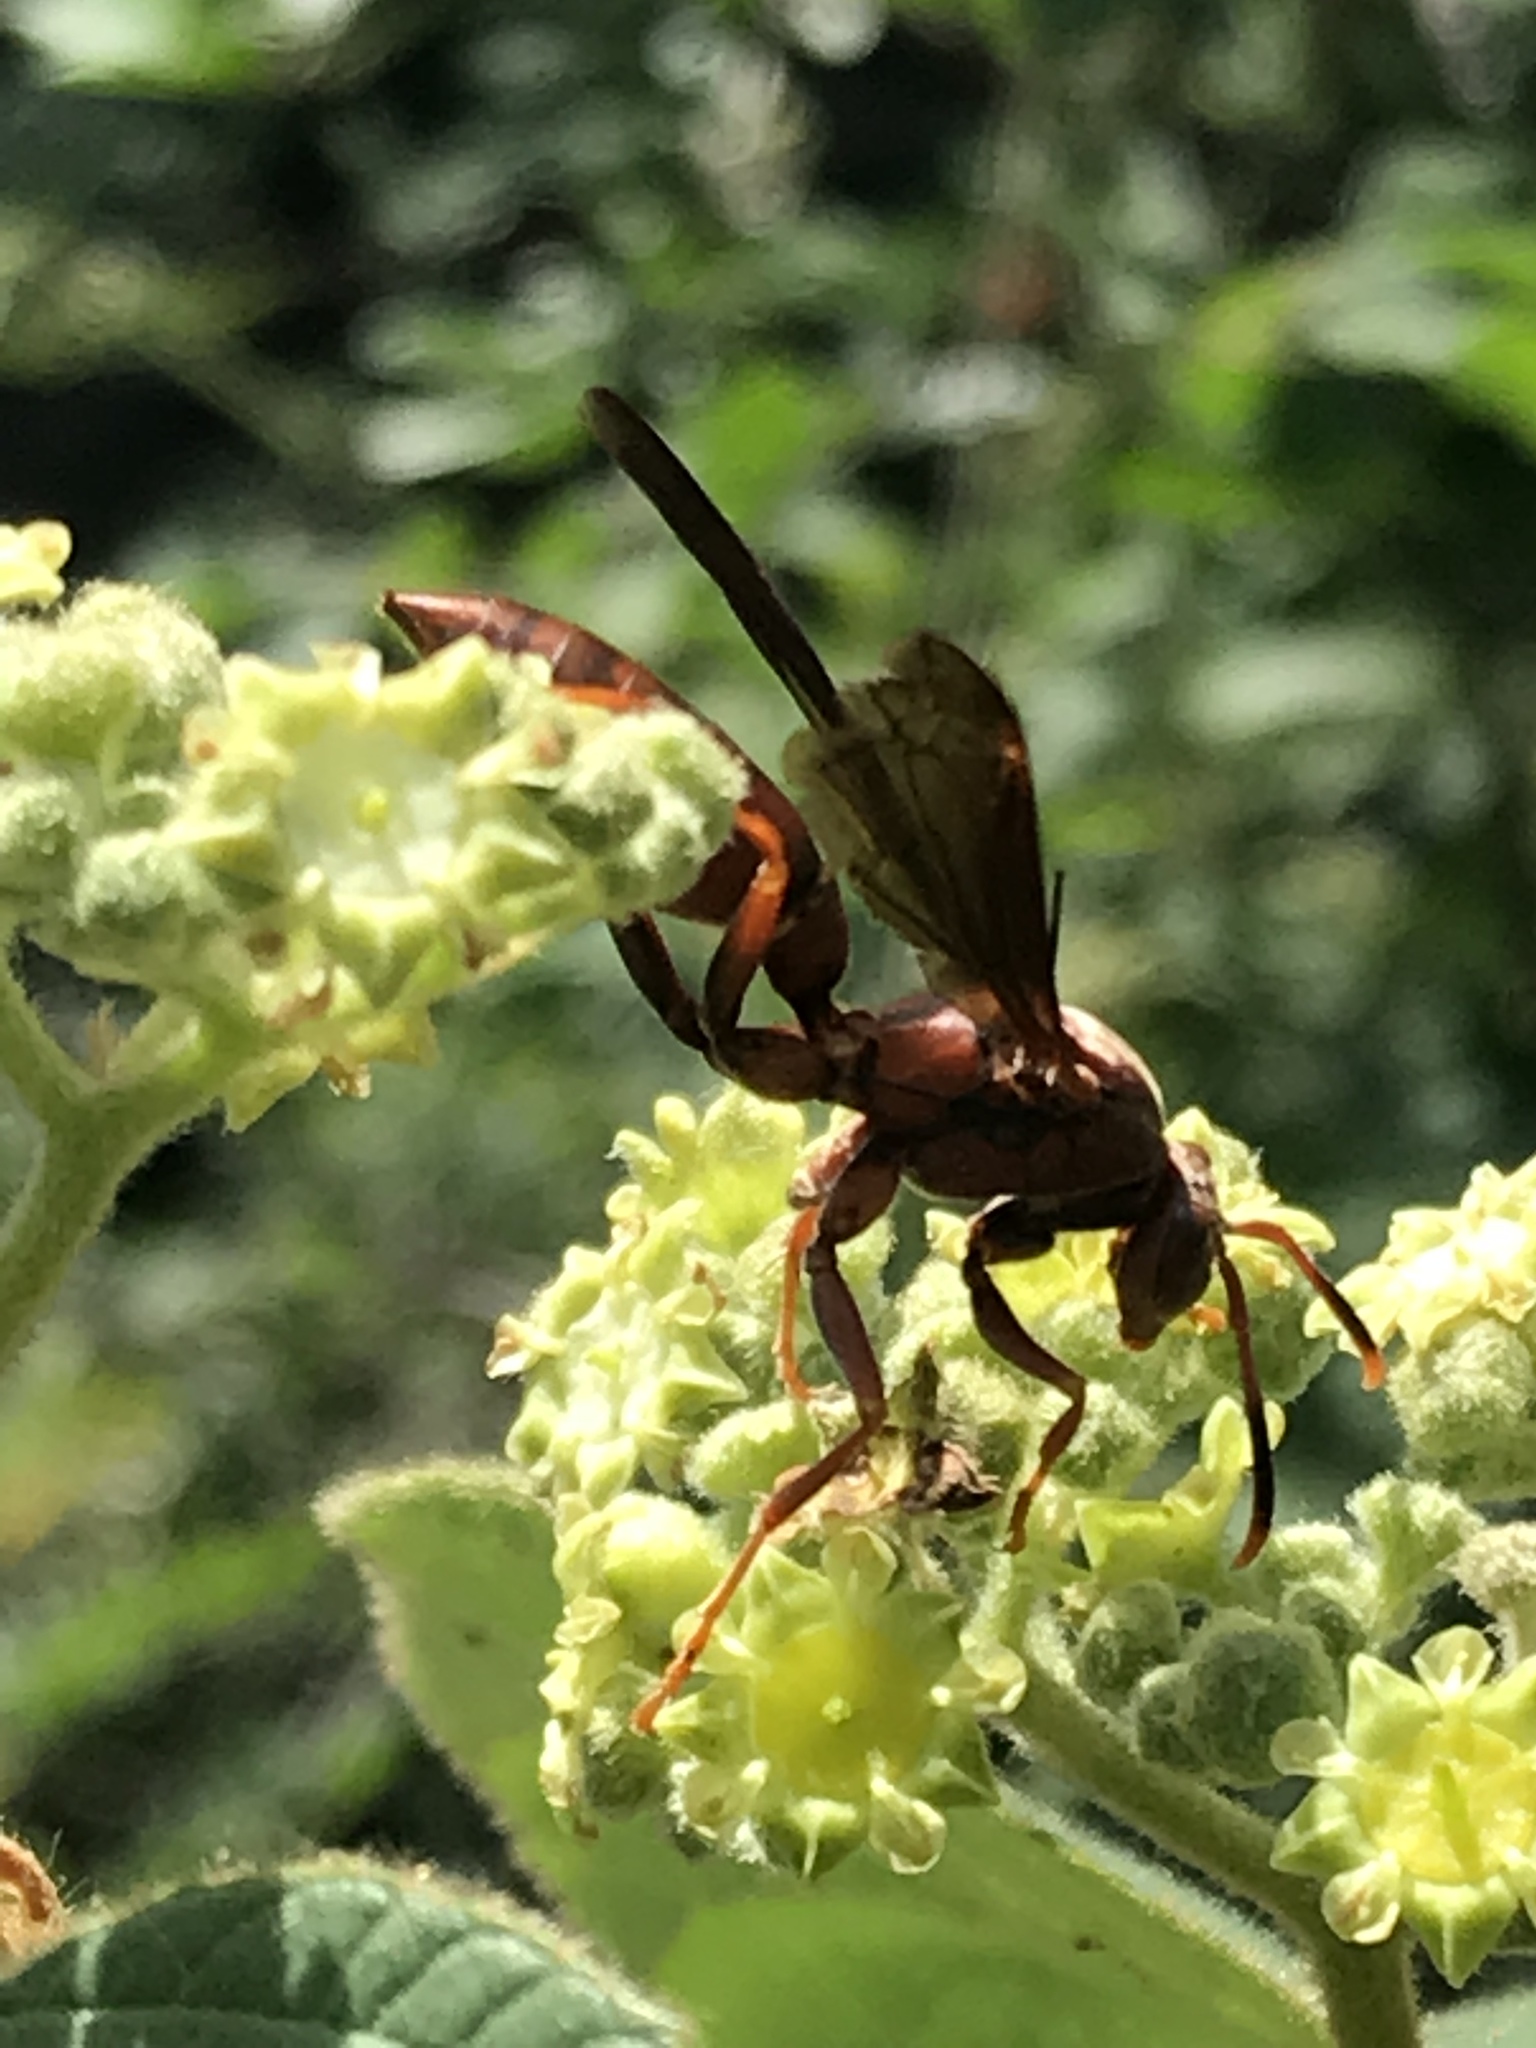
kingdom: Animalia
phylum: Arthropoda
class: Insecta
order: Hymenoptera
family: Eumenidae
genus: Polistes
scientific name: Polistes canadensis
